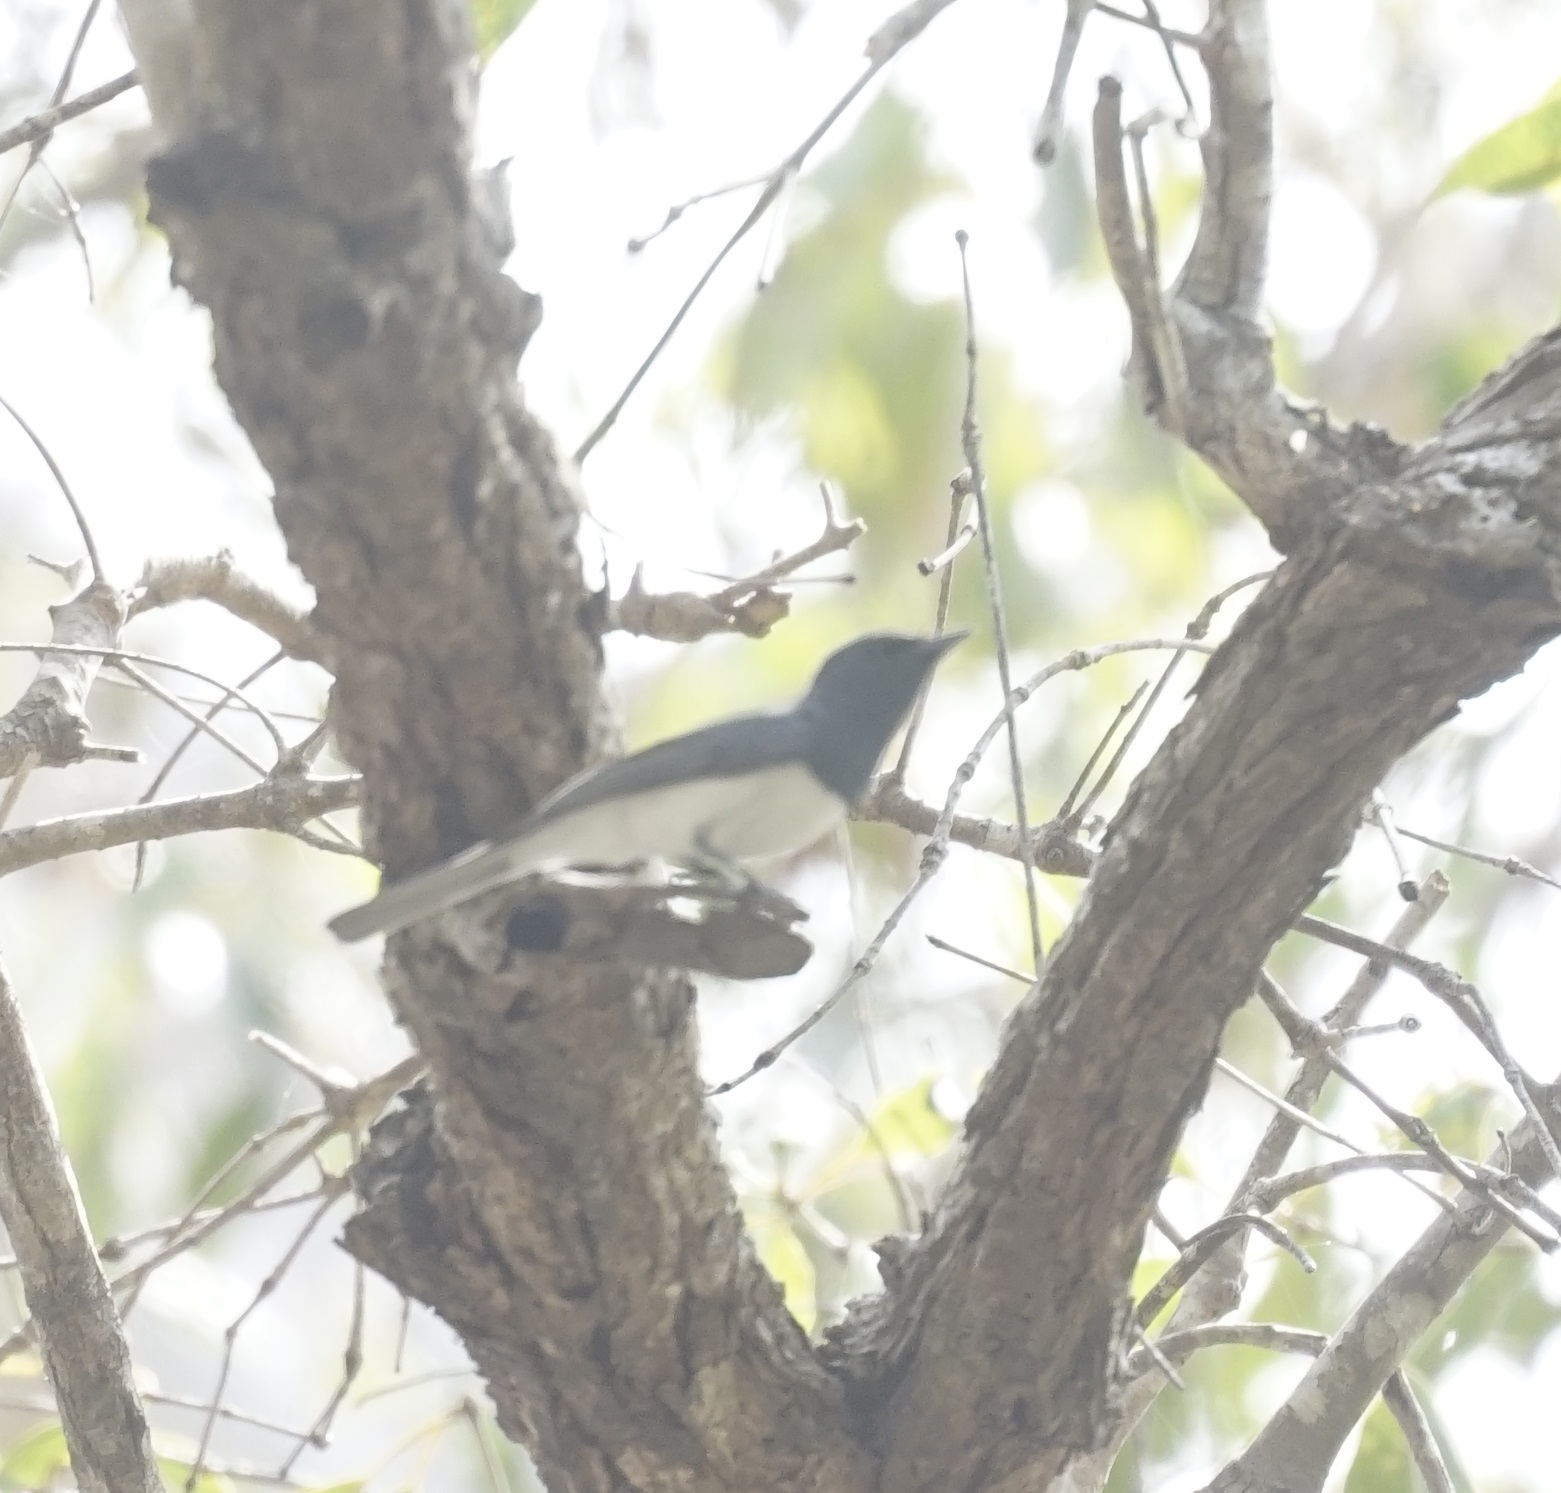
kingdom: Animalia
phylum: Chordata
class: Aves
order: Passeriformes
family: Monarchidae
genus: Myiagra
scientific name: Myiagra rubecula
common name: Leaden flycatcher
